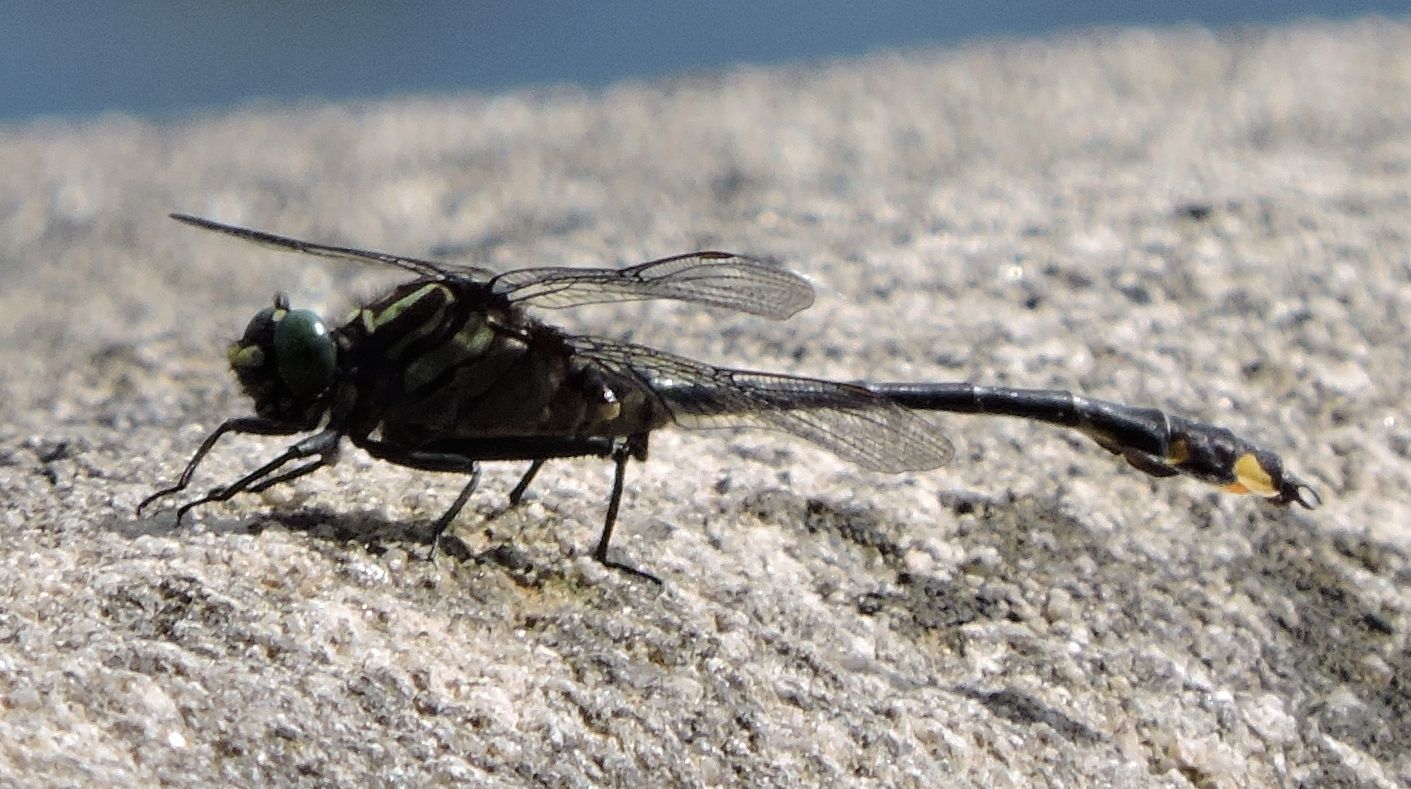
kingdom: Animalia
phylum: Arthropoda
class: Insecta
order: Odonata
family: Gomphidae
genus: Gomphurus
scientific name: Gomphurus vastus
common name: Cobra clubtail
